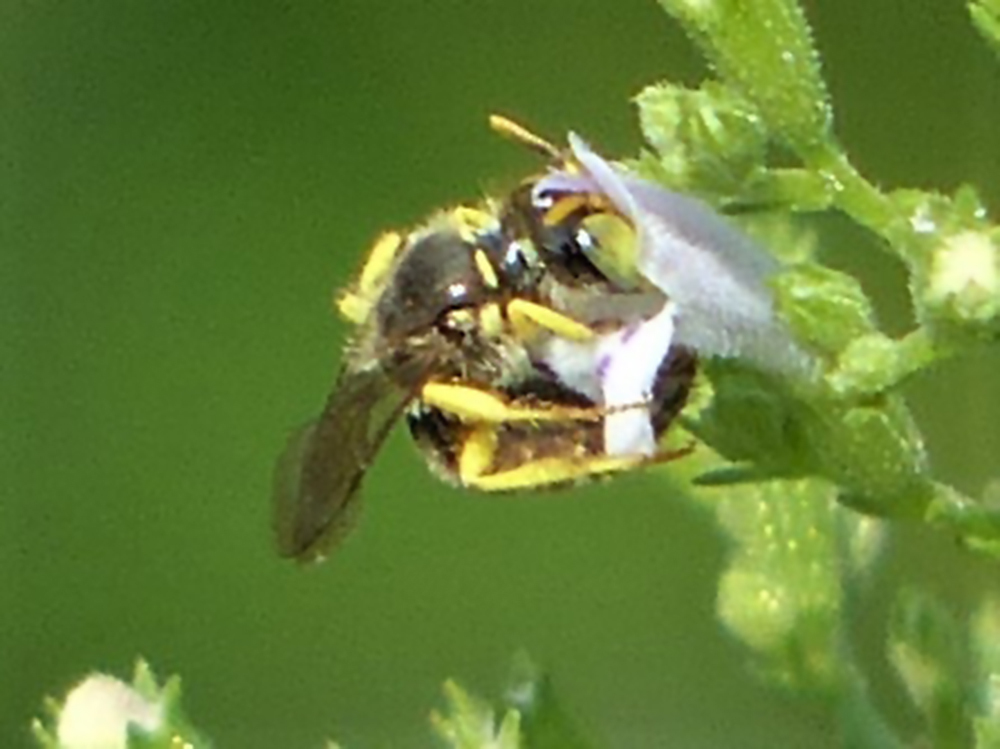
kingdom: Animalia
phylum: Arthropoda
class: Insecta
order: Hymenoptera
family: Andrenidae
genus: Calliopsis
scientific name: Calliopsis andreniformis
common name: Eastern calliopsis bee
